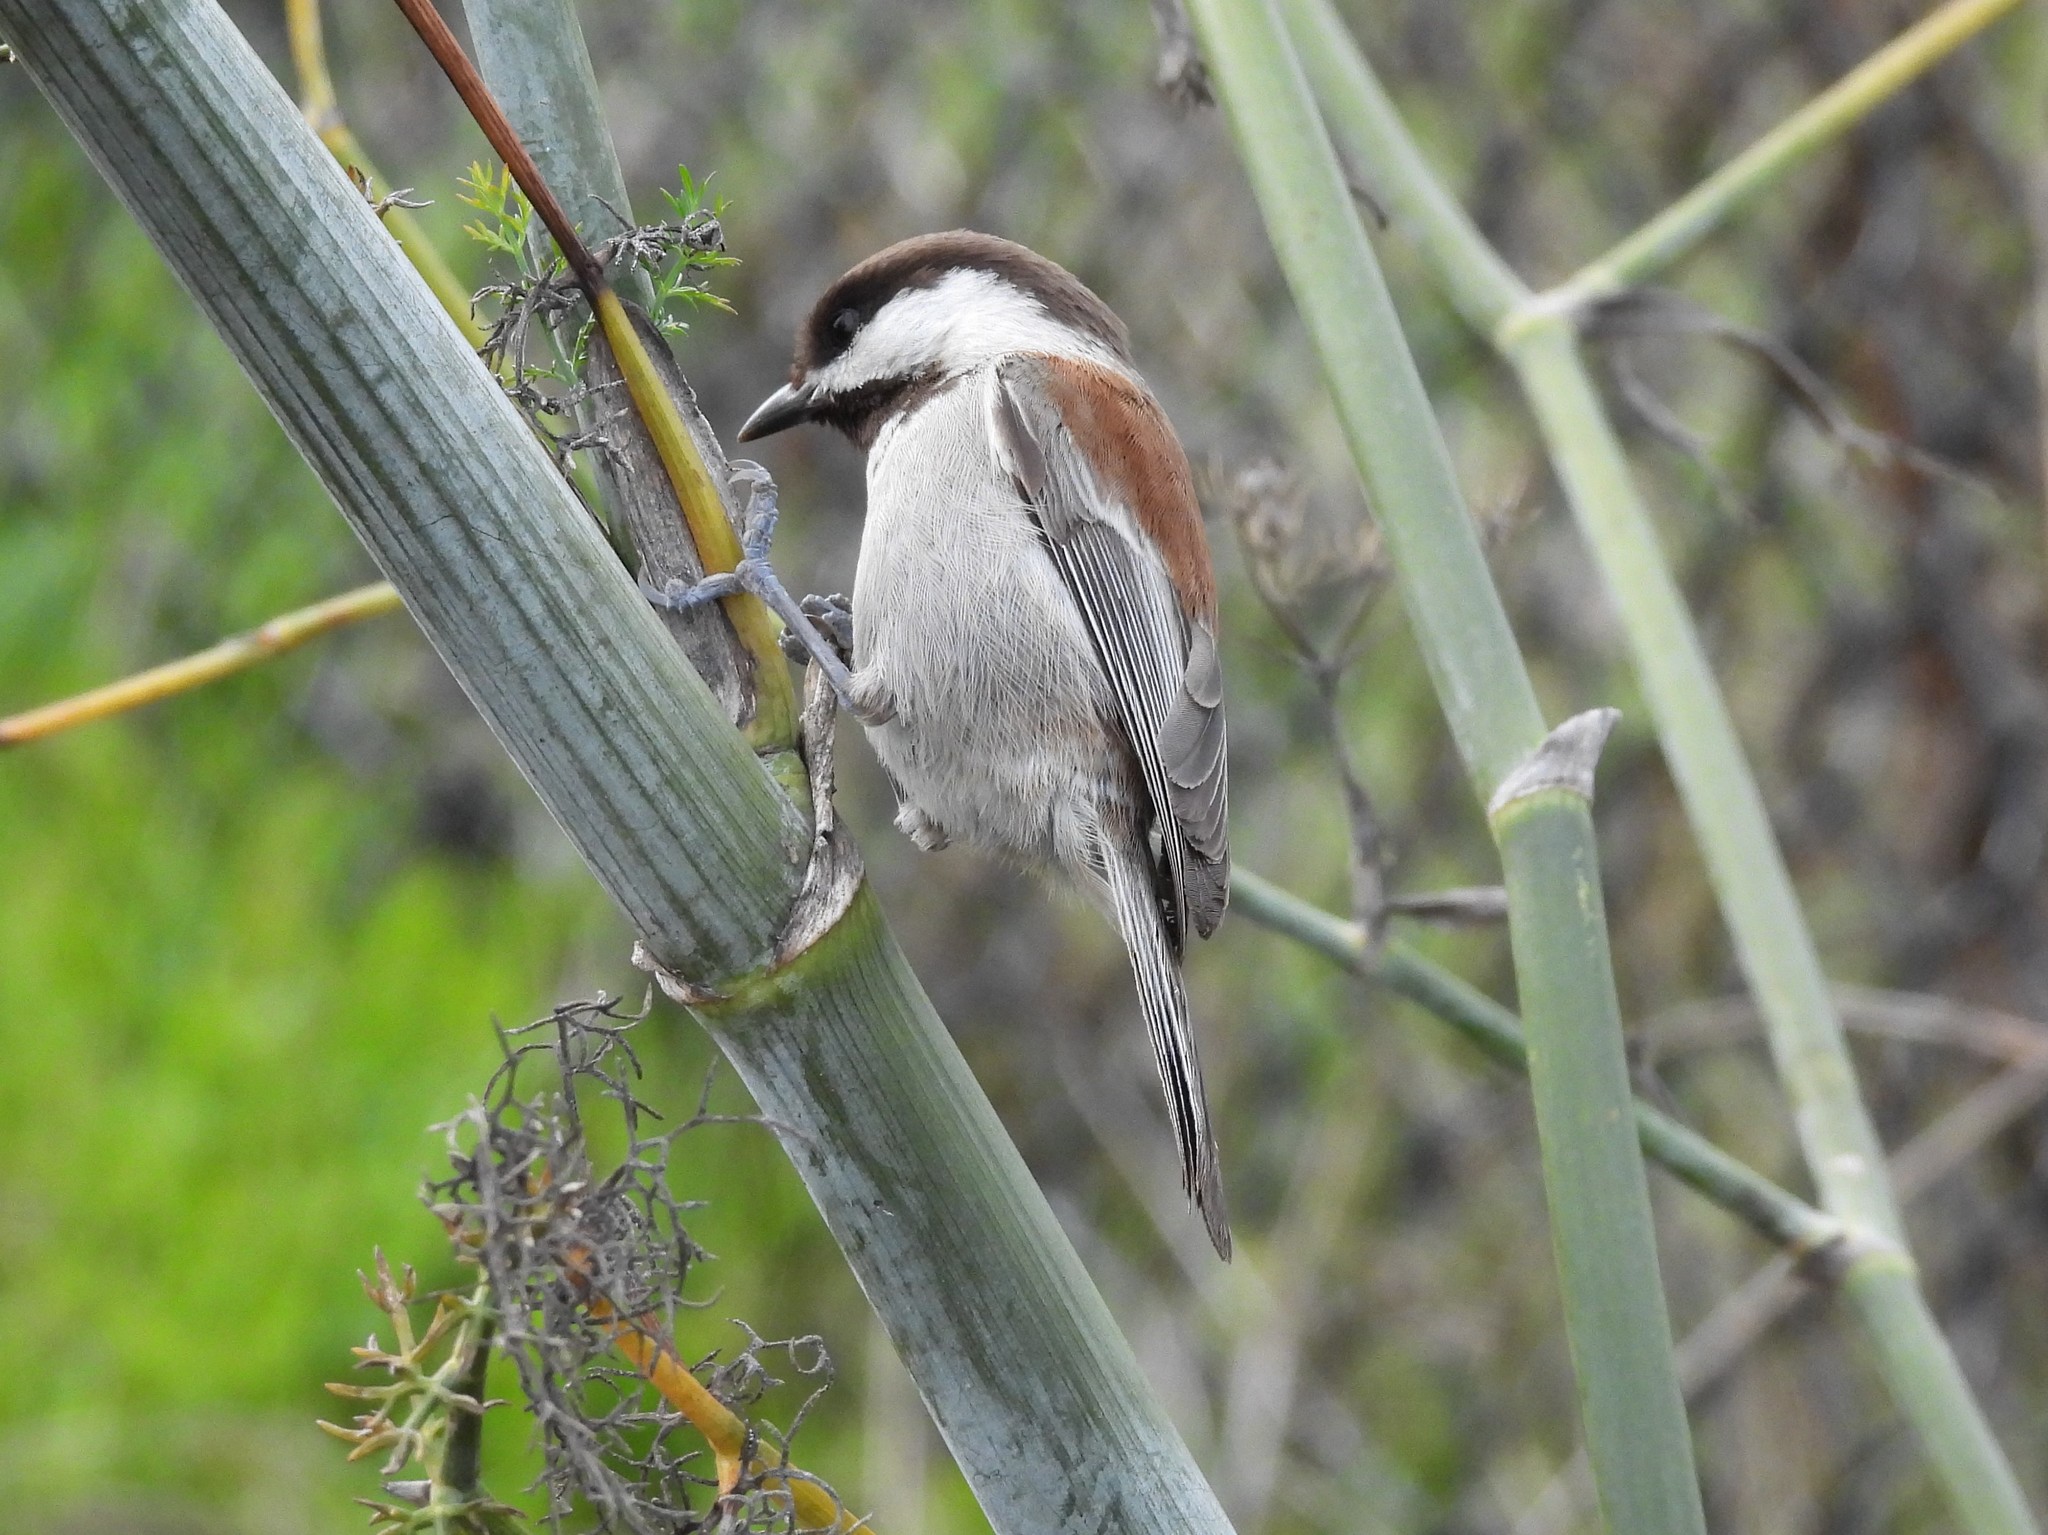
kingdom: Animalia
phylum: Chordata
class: Aves
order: Passeriformes
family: Paridae
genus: Poecile
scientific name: Poecile rufescens
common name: Chestnut-backed chickadee
